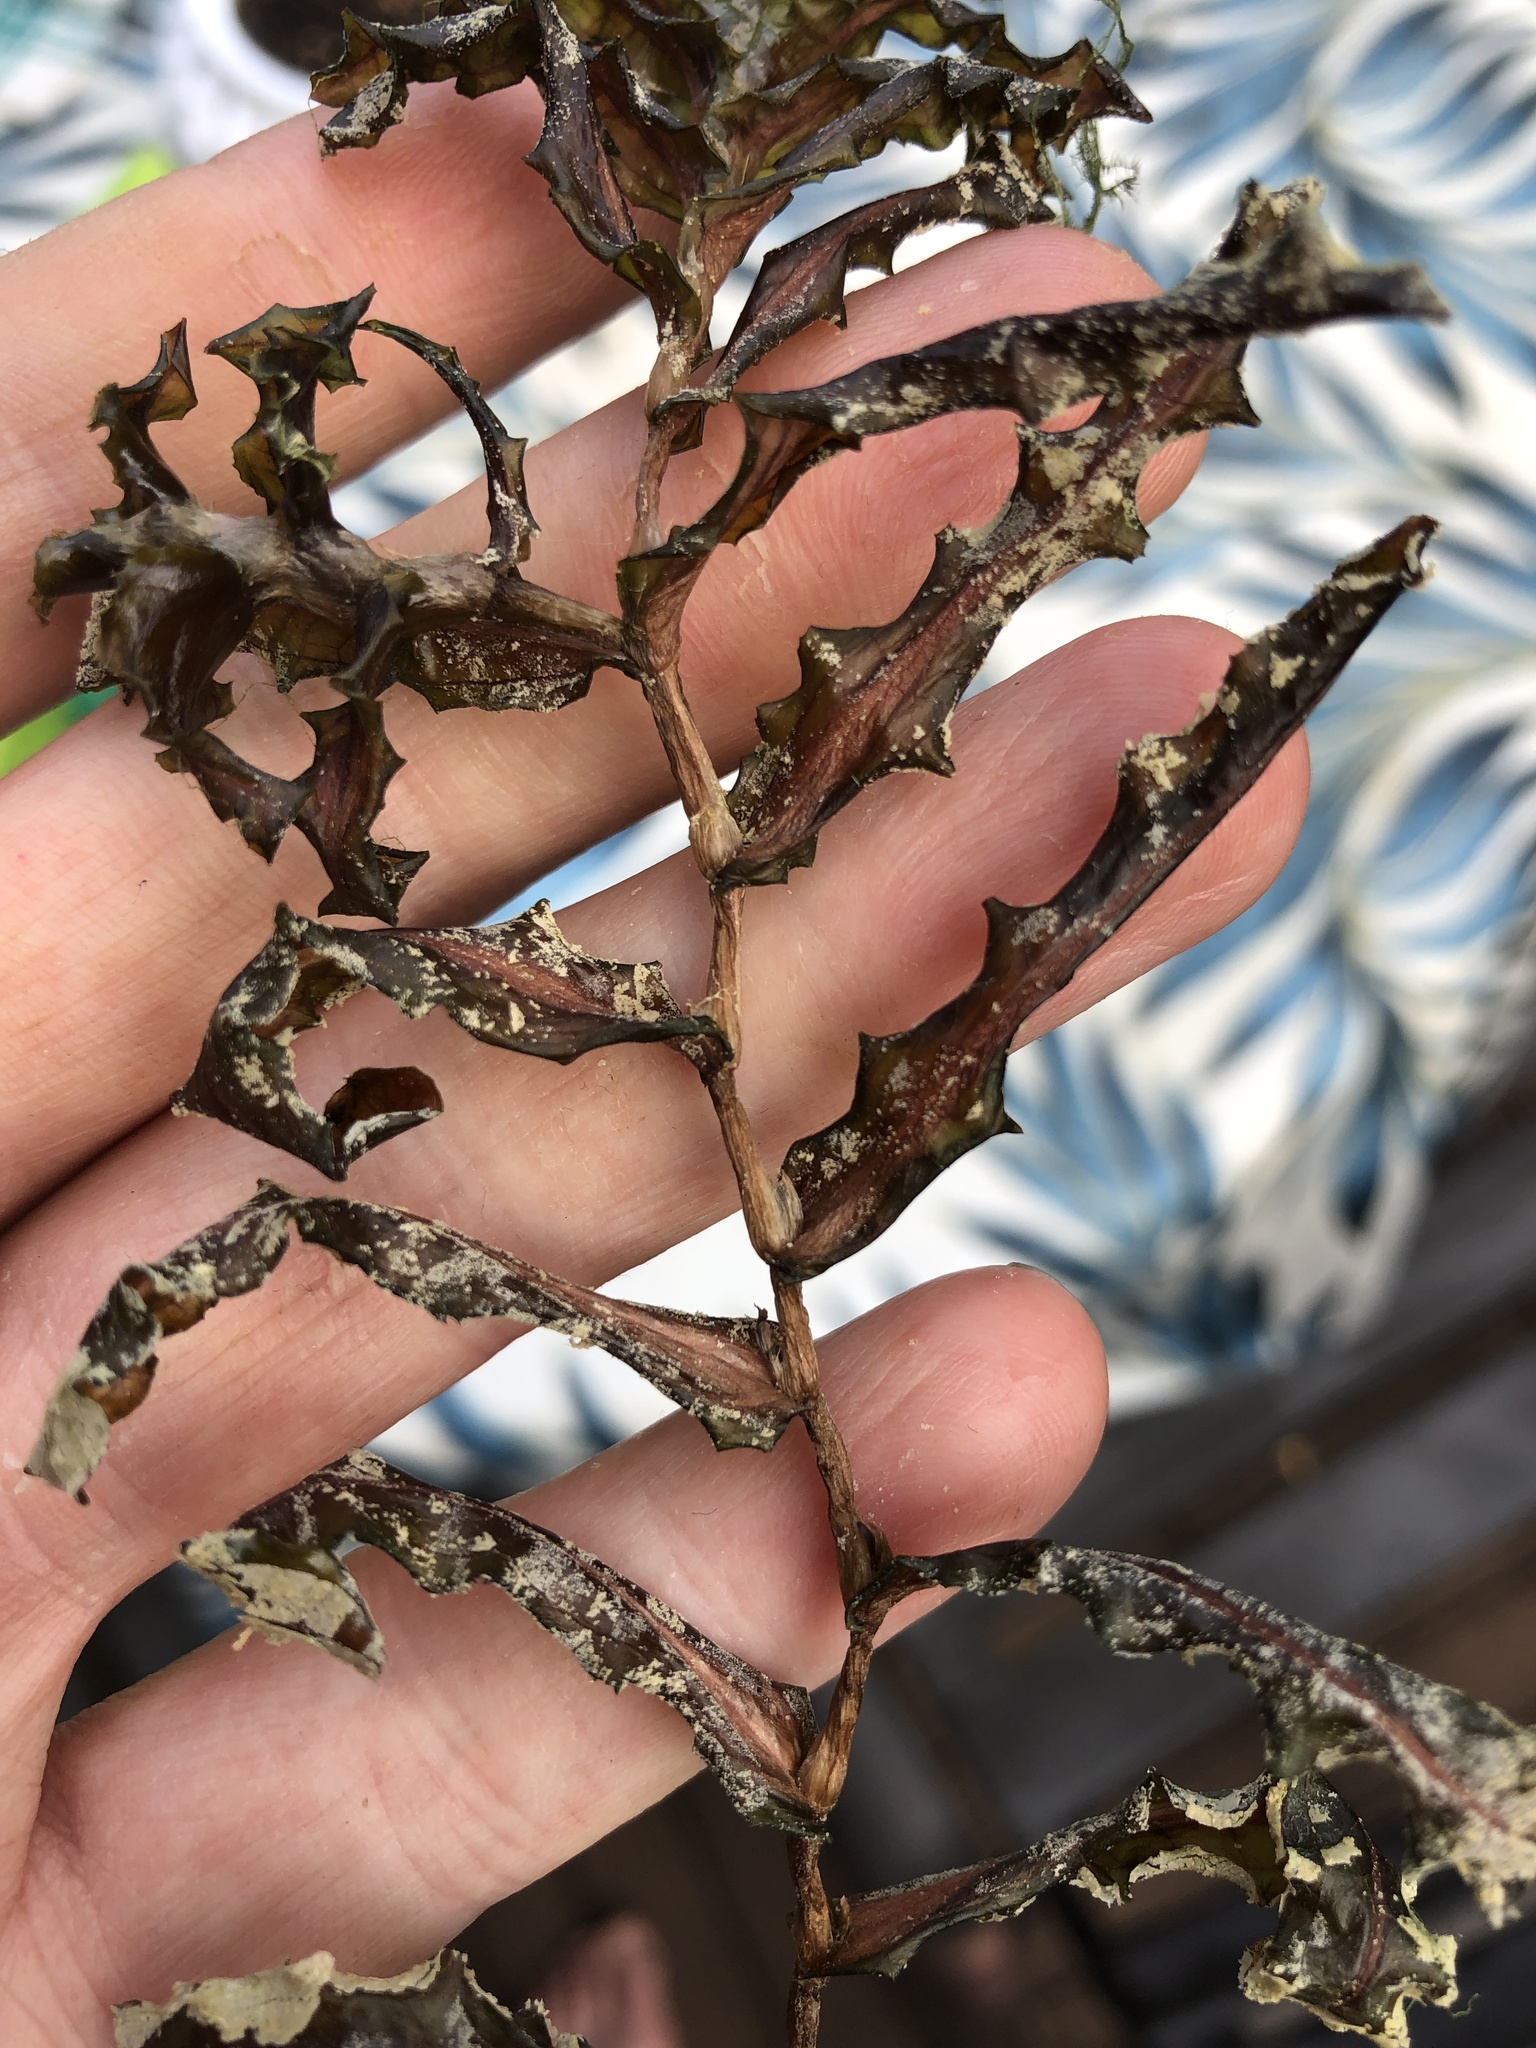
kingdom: Plantae
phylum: Tracheophyta
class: Liliopsida
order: Alismatales
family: Potamogetonaceae
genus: Potamogeton
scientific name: Potamogeton crispus
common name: Curled pondweed
